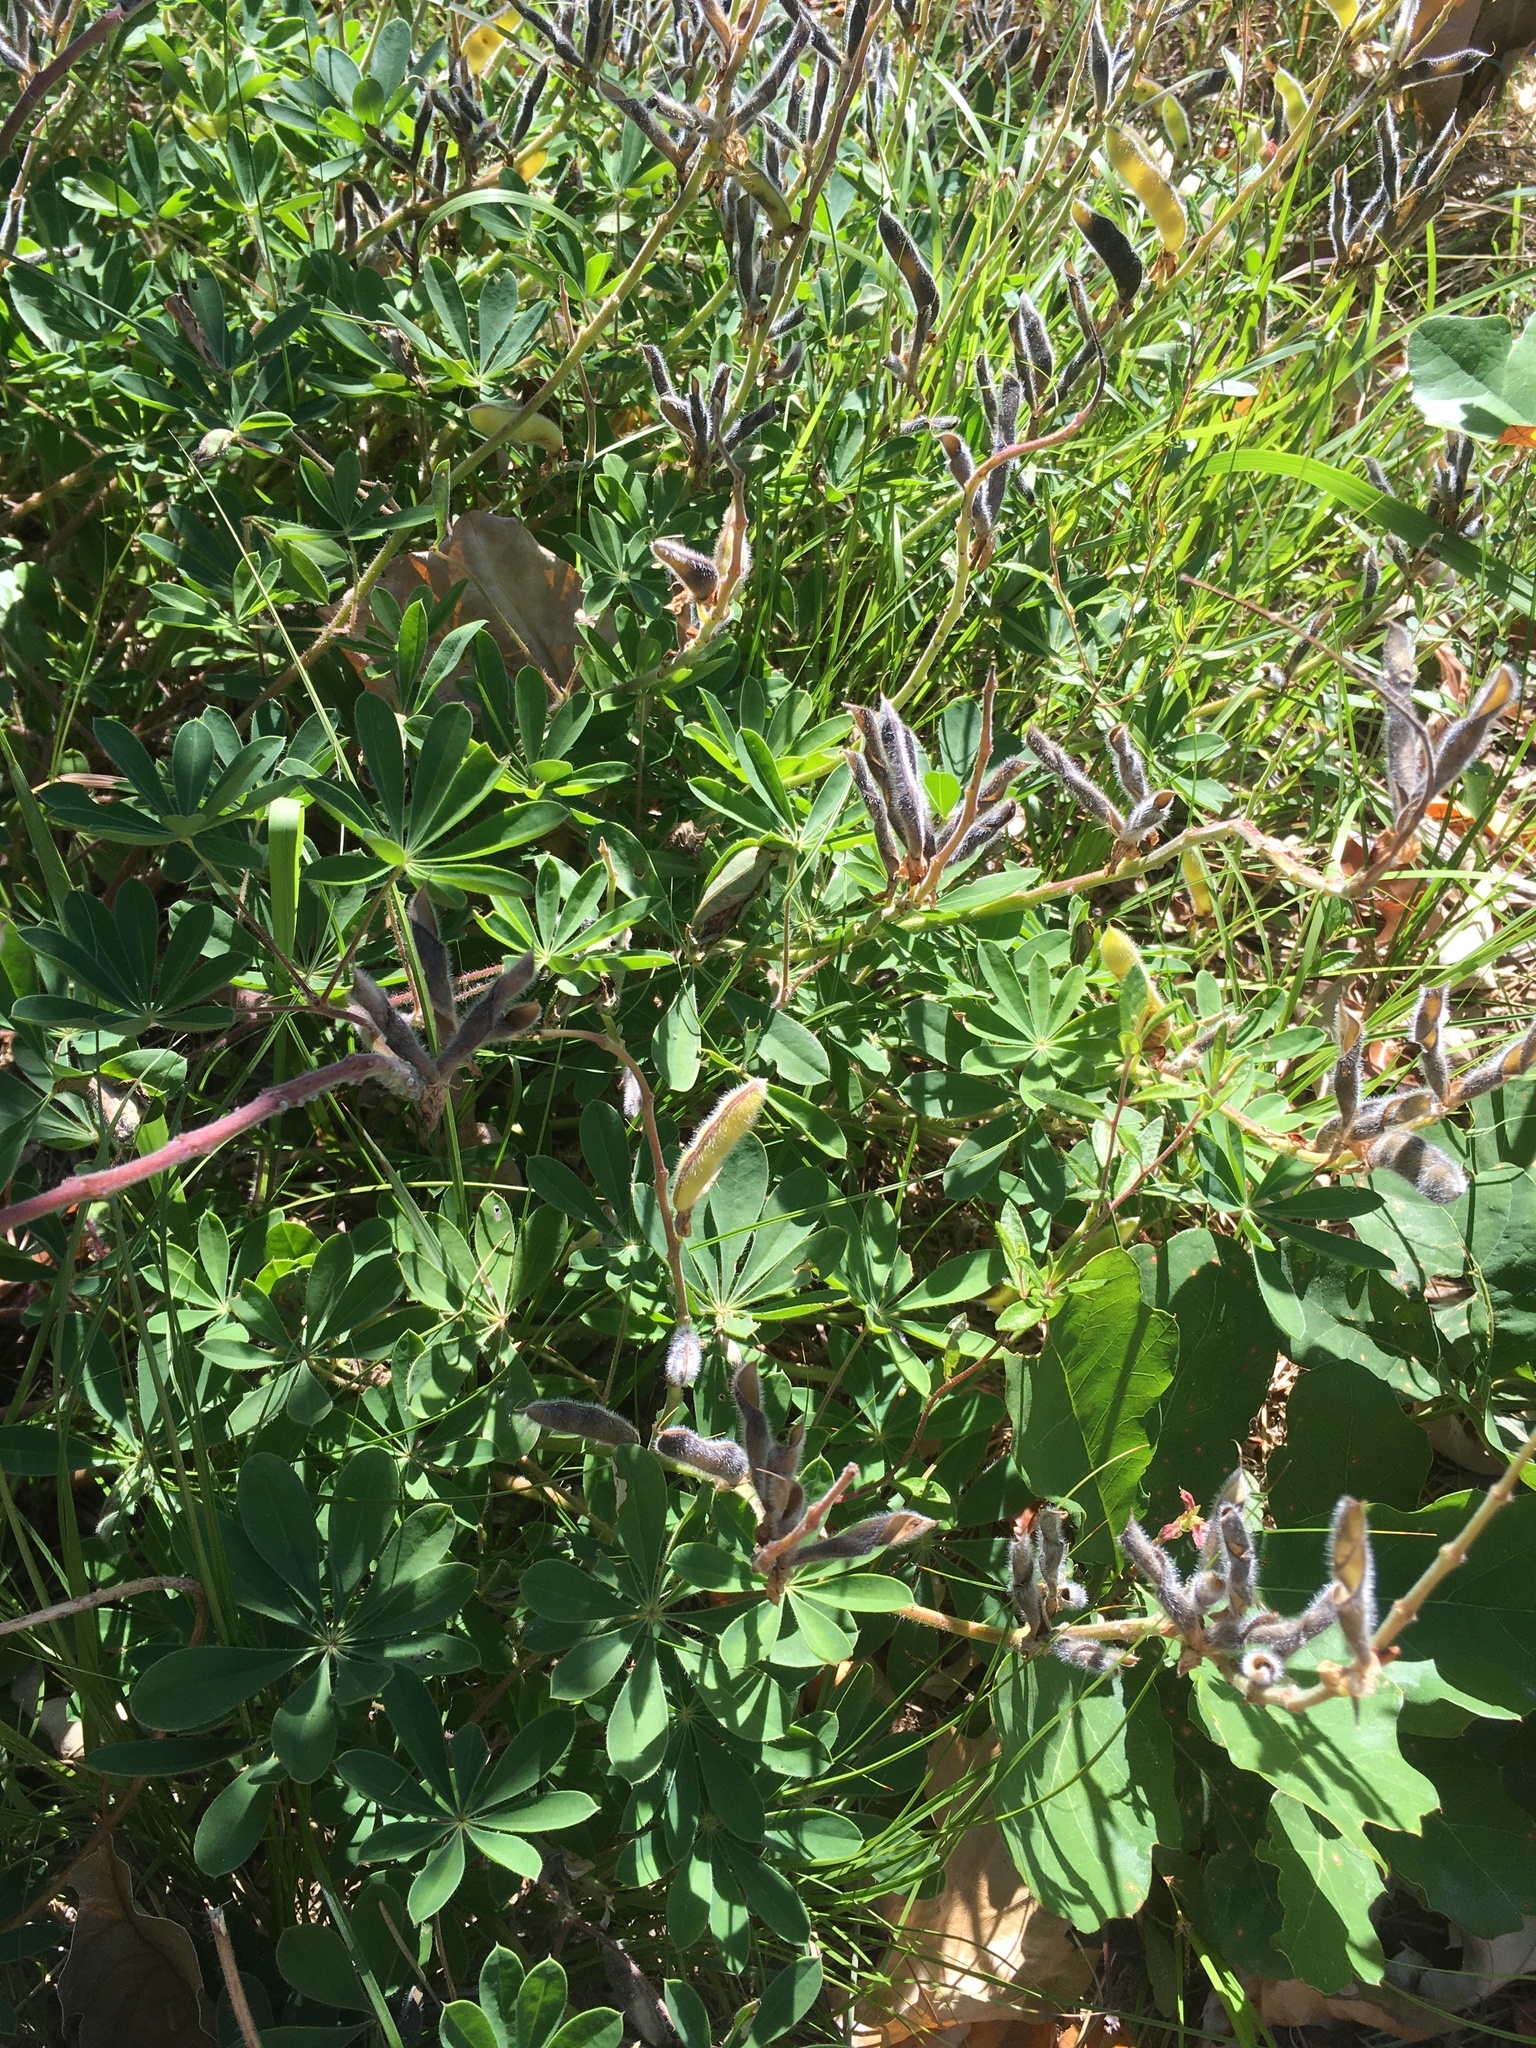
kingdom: Plantae
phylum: Tracheophyta
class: Magnoliopsida
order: Fabales
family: Fabaceae
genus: Lupinus
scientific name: Lupinus perennis
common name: Sundial lupine
